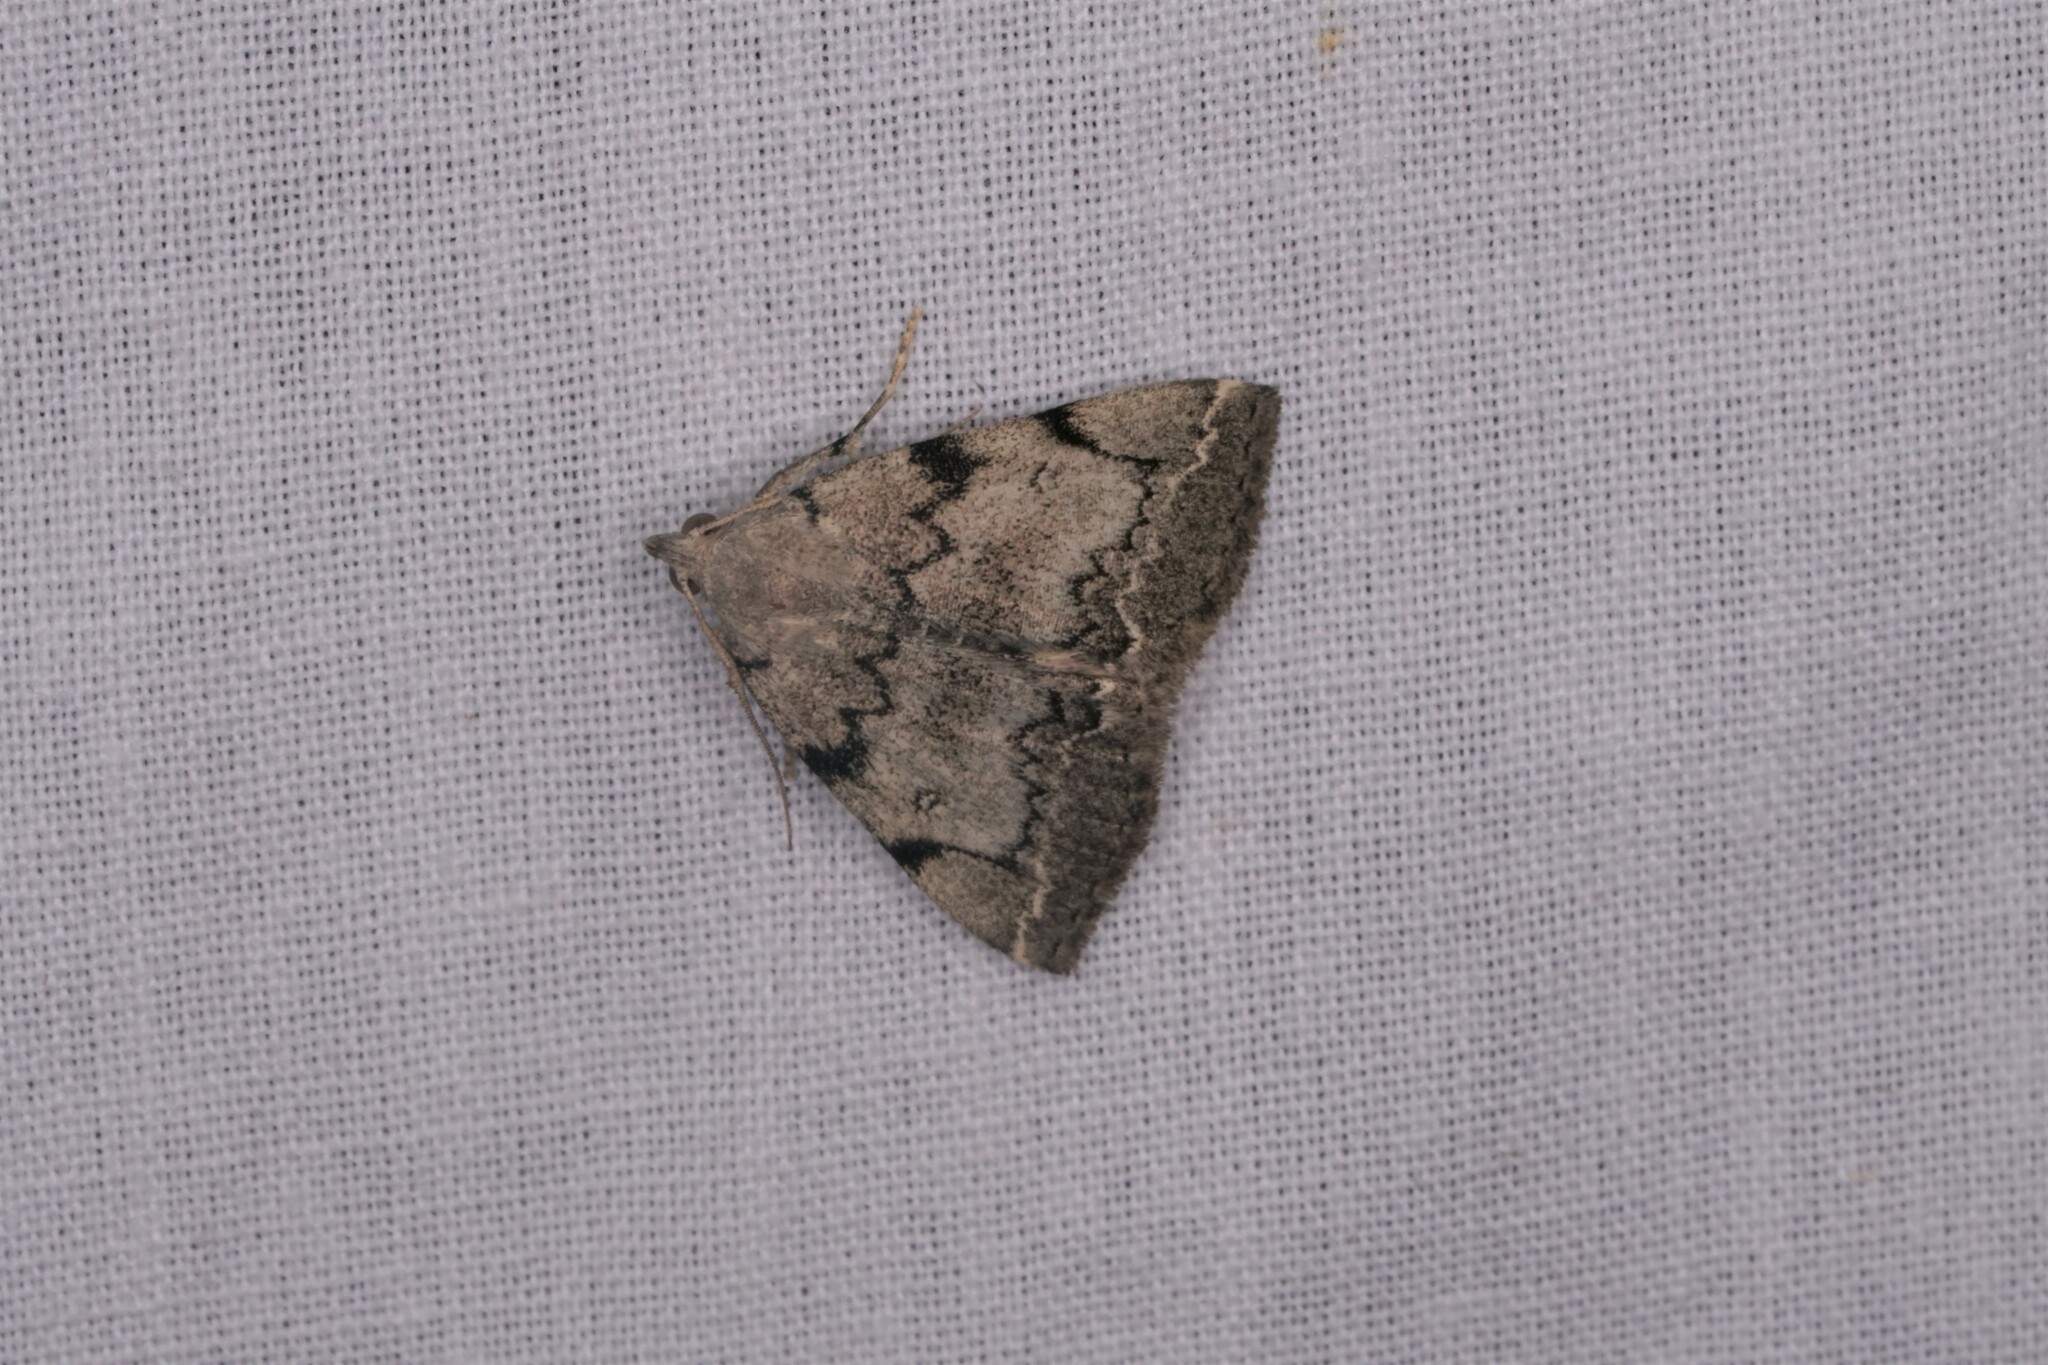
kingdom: Animalia
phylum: Arthropoda
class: Insecta
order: Lepidoptera
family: Erebidae
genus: Zanclognatha
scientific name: Zanclognatha theralis
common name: Flagged fan-foot
